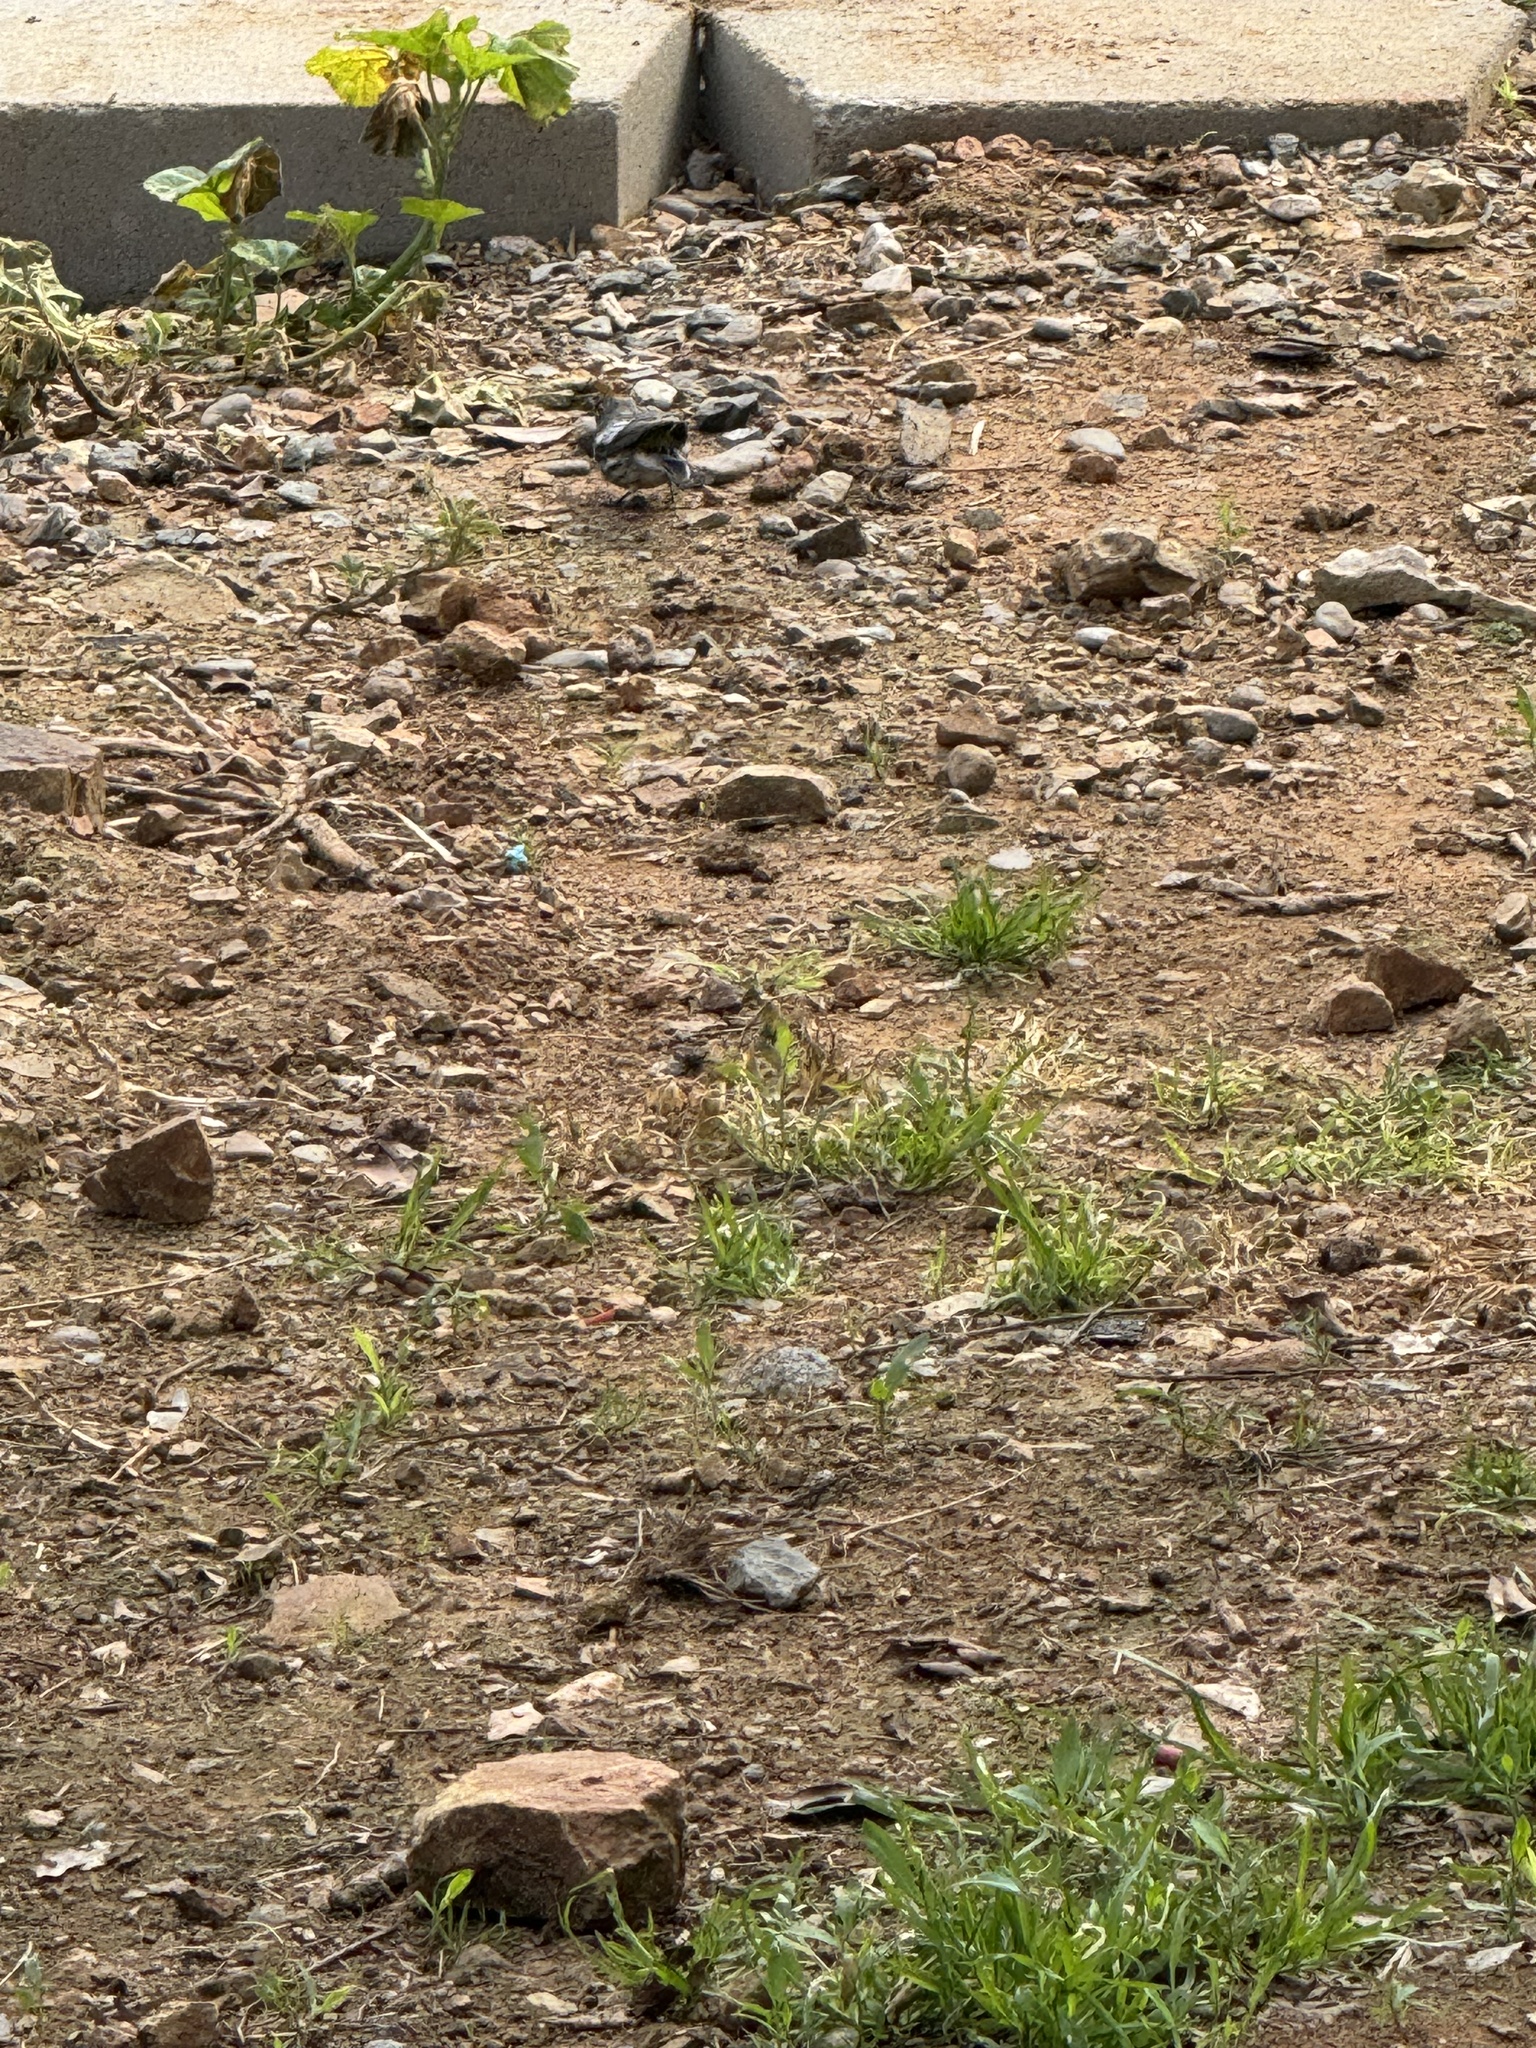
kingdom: Animalia
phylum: Chordata
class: Aves
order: Passeriformes
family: Parulidae
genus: Setophaga
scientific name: Setophaga auduboni
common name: Audubon's warbler
